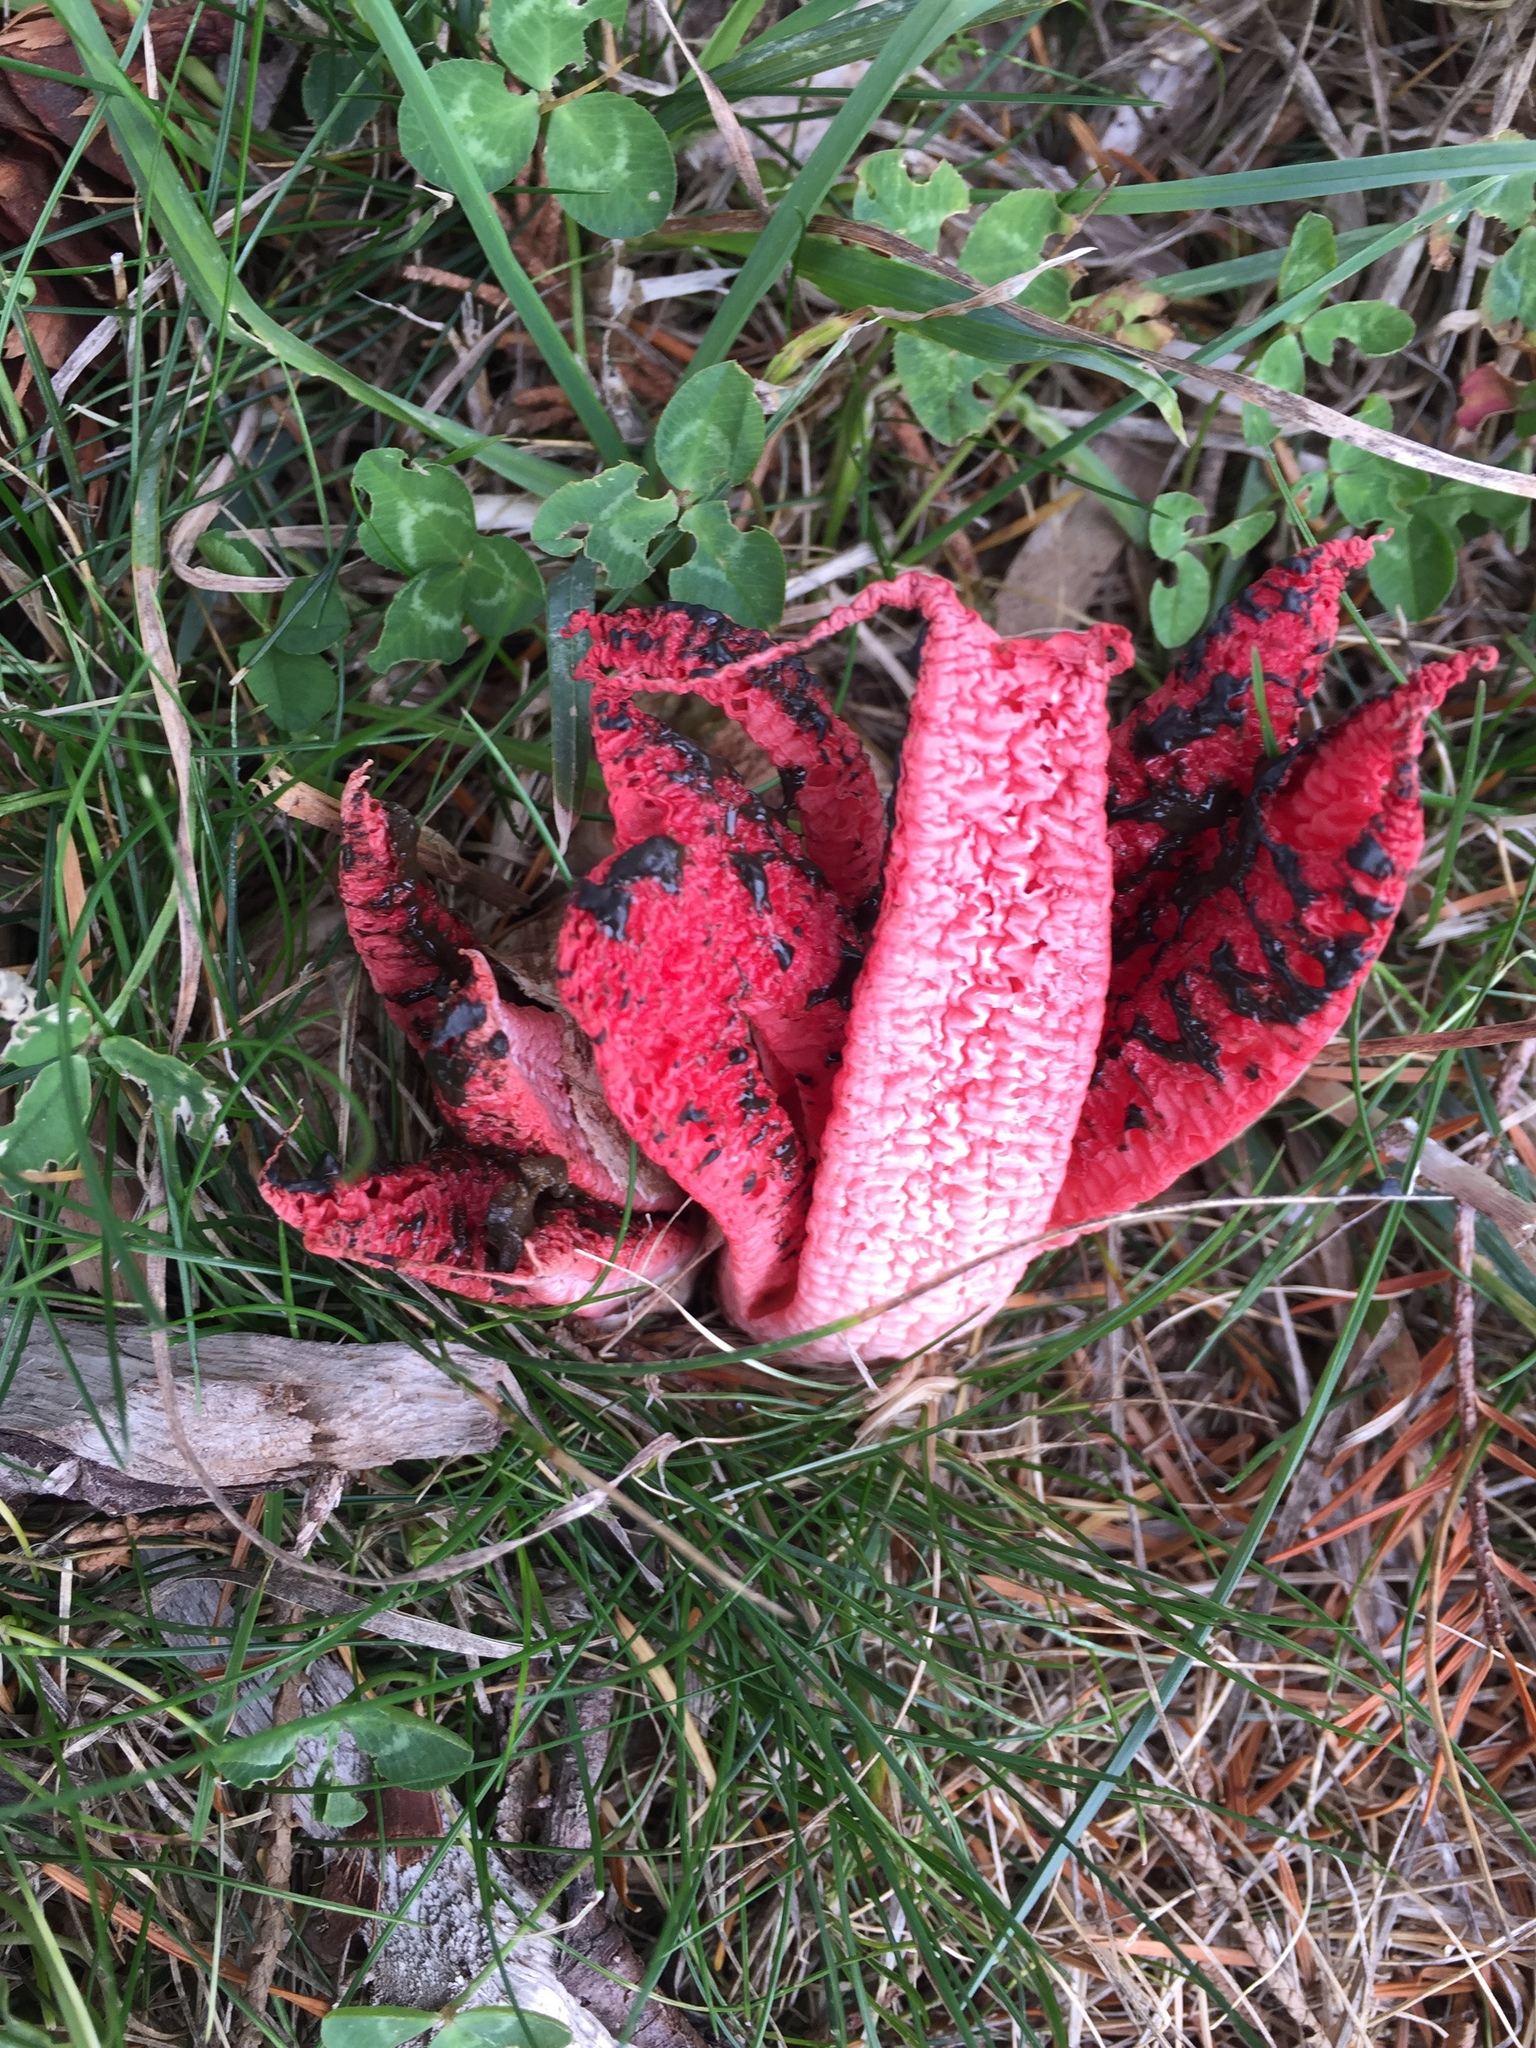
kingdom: Fungi
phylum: Basidiomycota
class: Agaricomycetes
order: Phallales
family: Phallaceae
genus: Clathrus
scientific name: Clathrus archeri
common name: Devil's fingers
